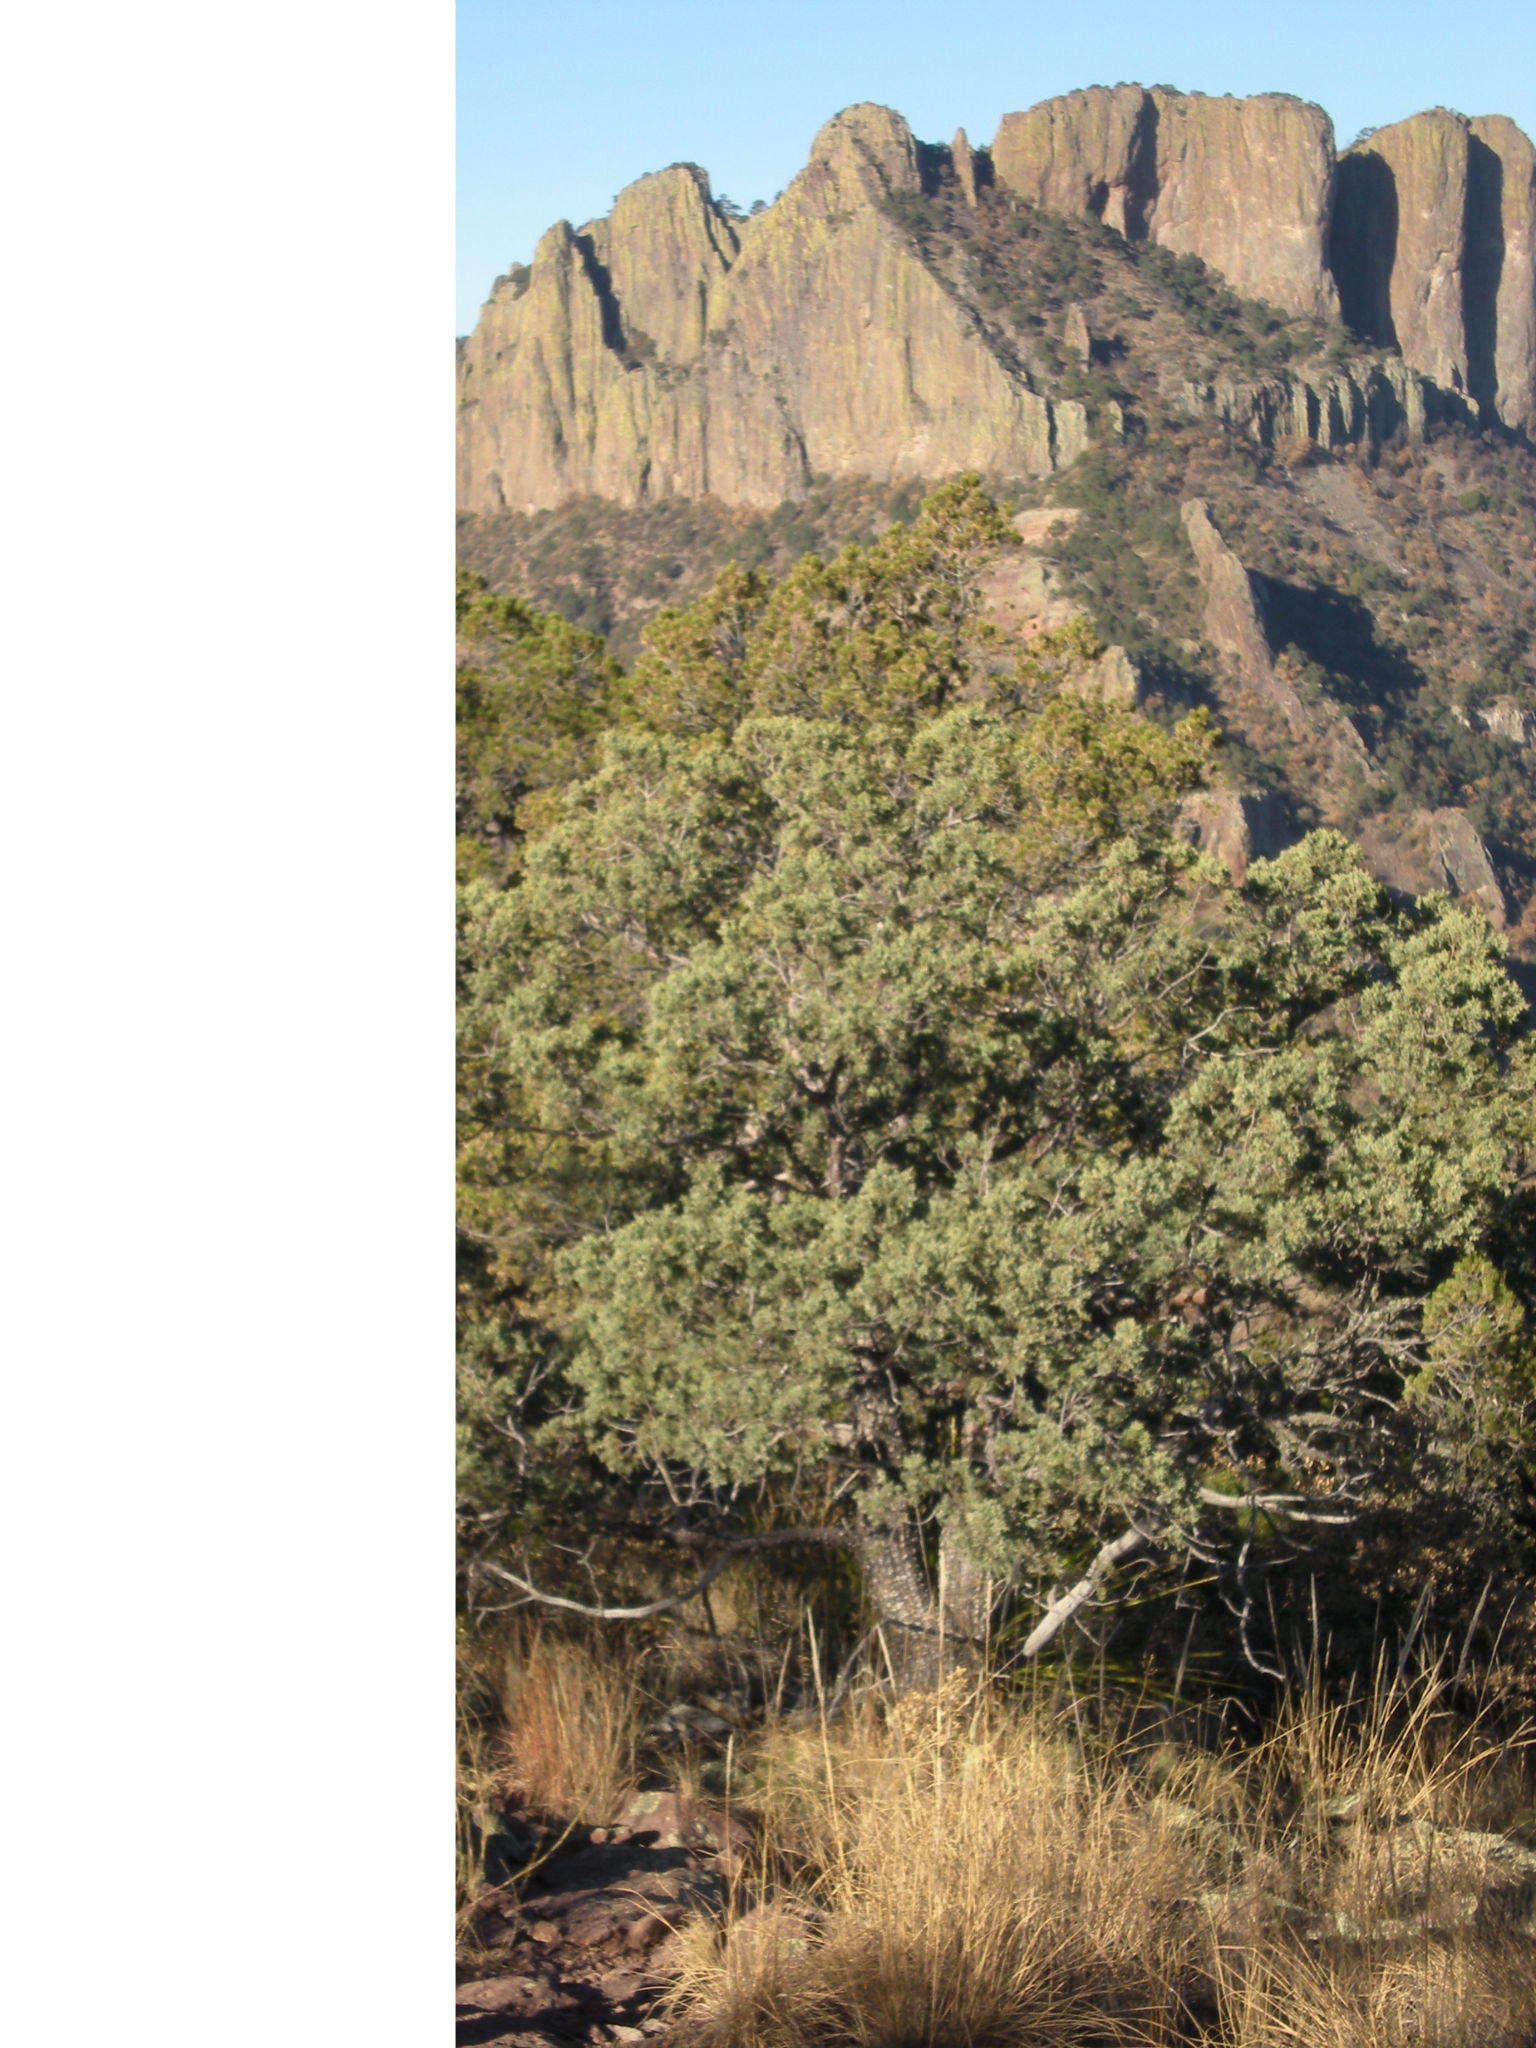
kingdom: Plantae
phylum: Tracheophyta
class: Pinopsida
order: Pinales
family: Cupressaceae
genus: Juniperus
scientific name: Juniperus deppeana
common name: Alligator juniper
